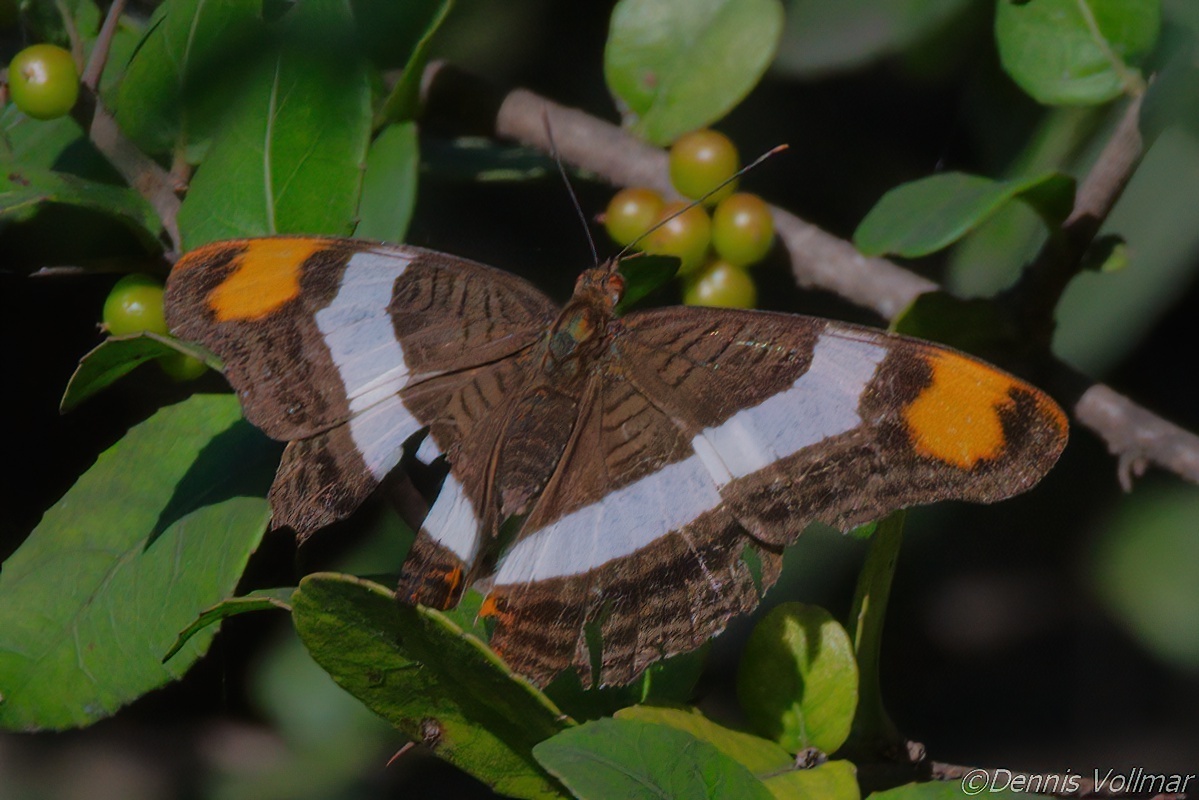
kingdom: Animalia
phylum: Arthropoda
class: Insecta
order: Lepidoptera
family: Nymphalidae
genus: Limenitis
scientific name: Limenitis fessonia
